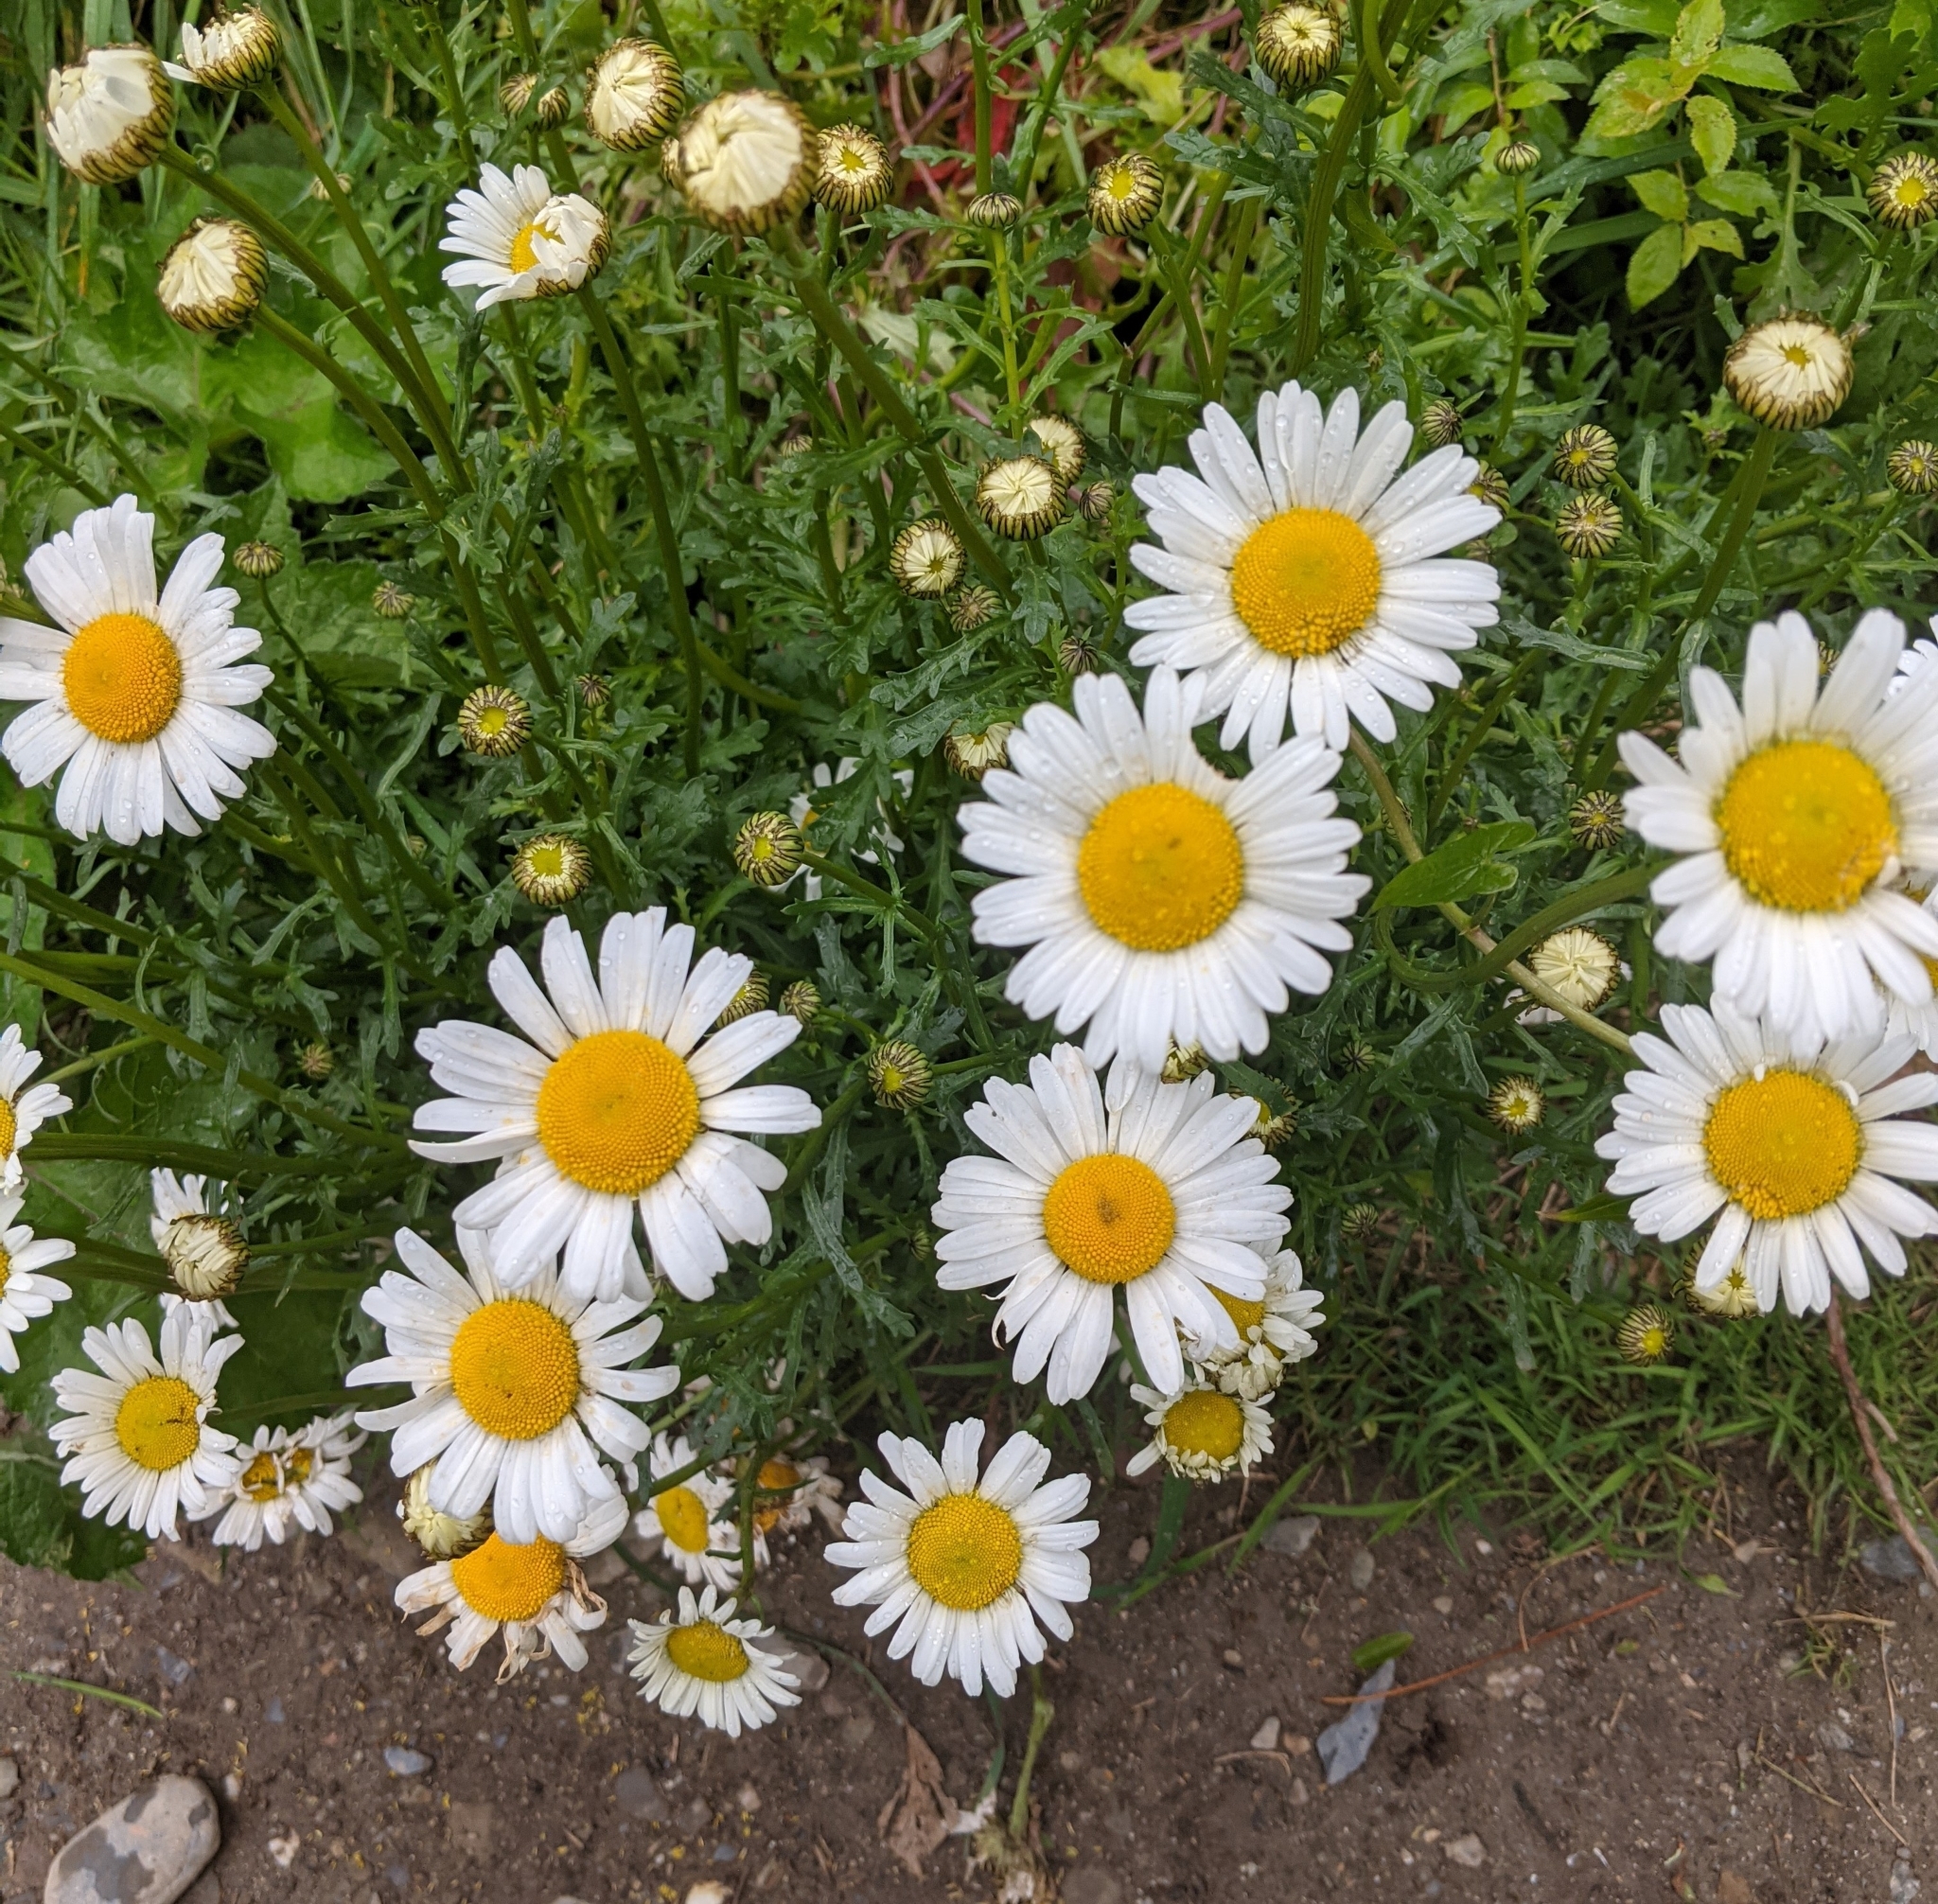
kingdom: Plantae
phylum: Tracheophyta
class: Magnoliopsida
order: Asterales
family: Asteraceae
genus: Leucanthemum
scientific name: Leucanthemum vulgare
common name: Oxeye daisy
